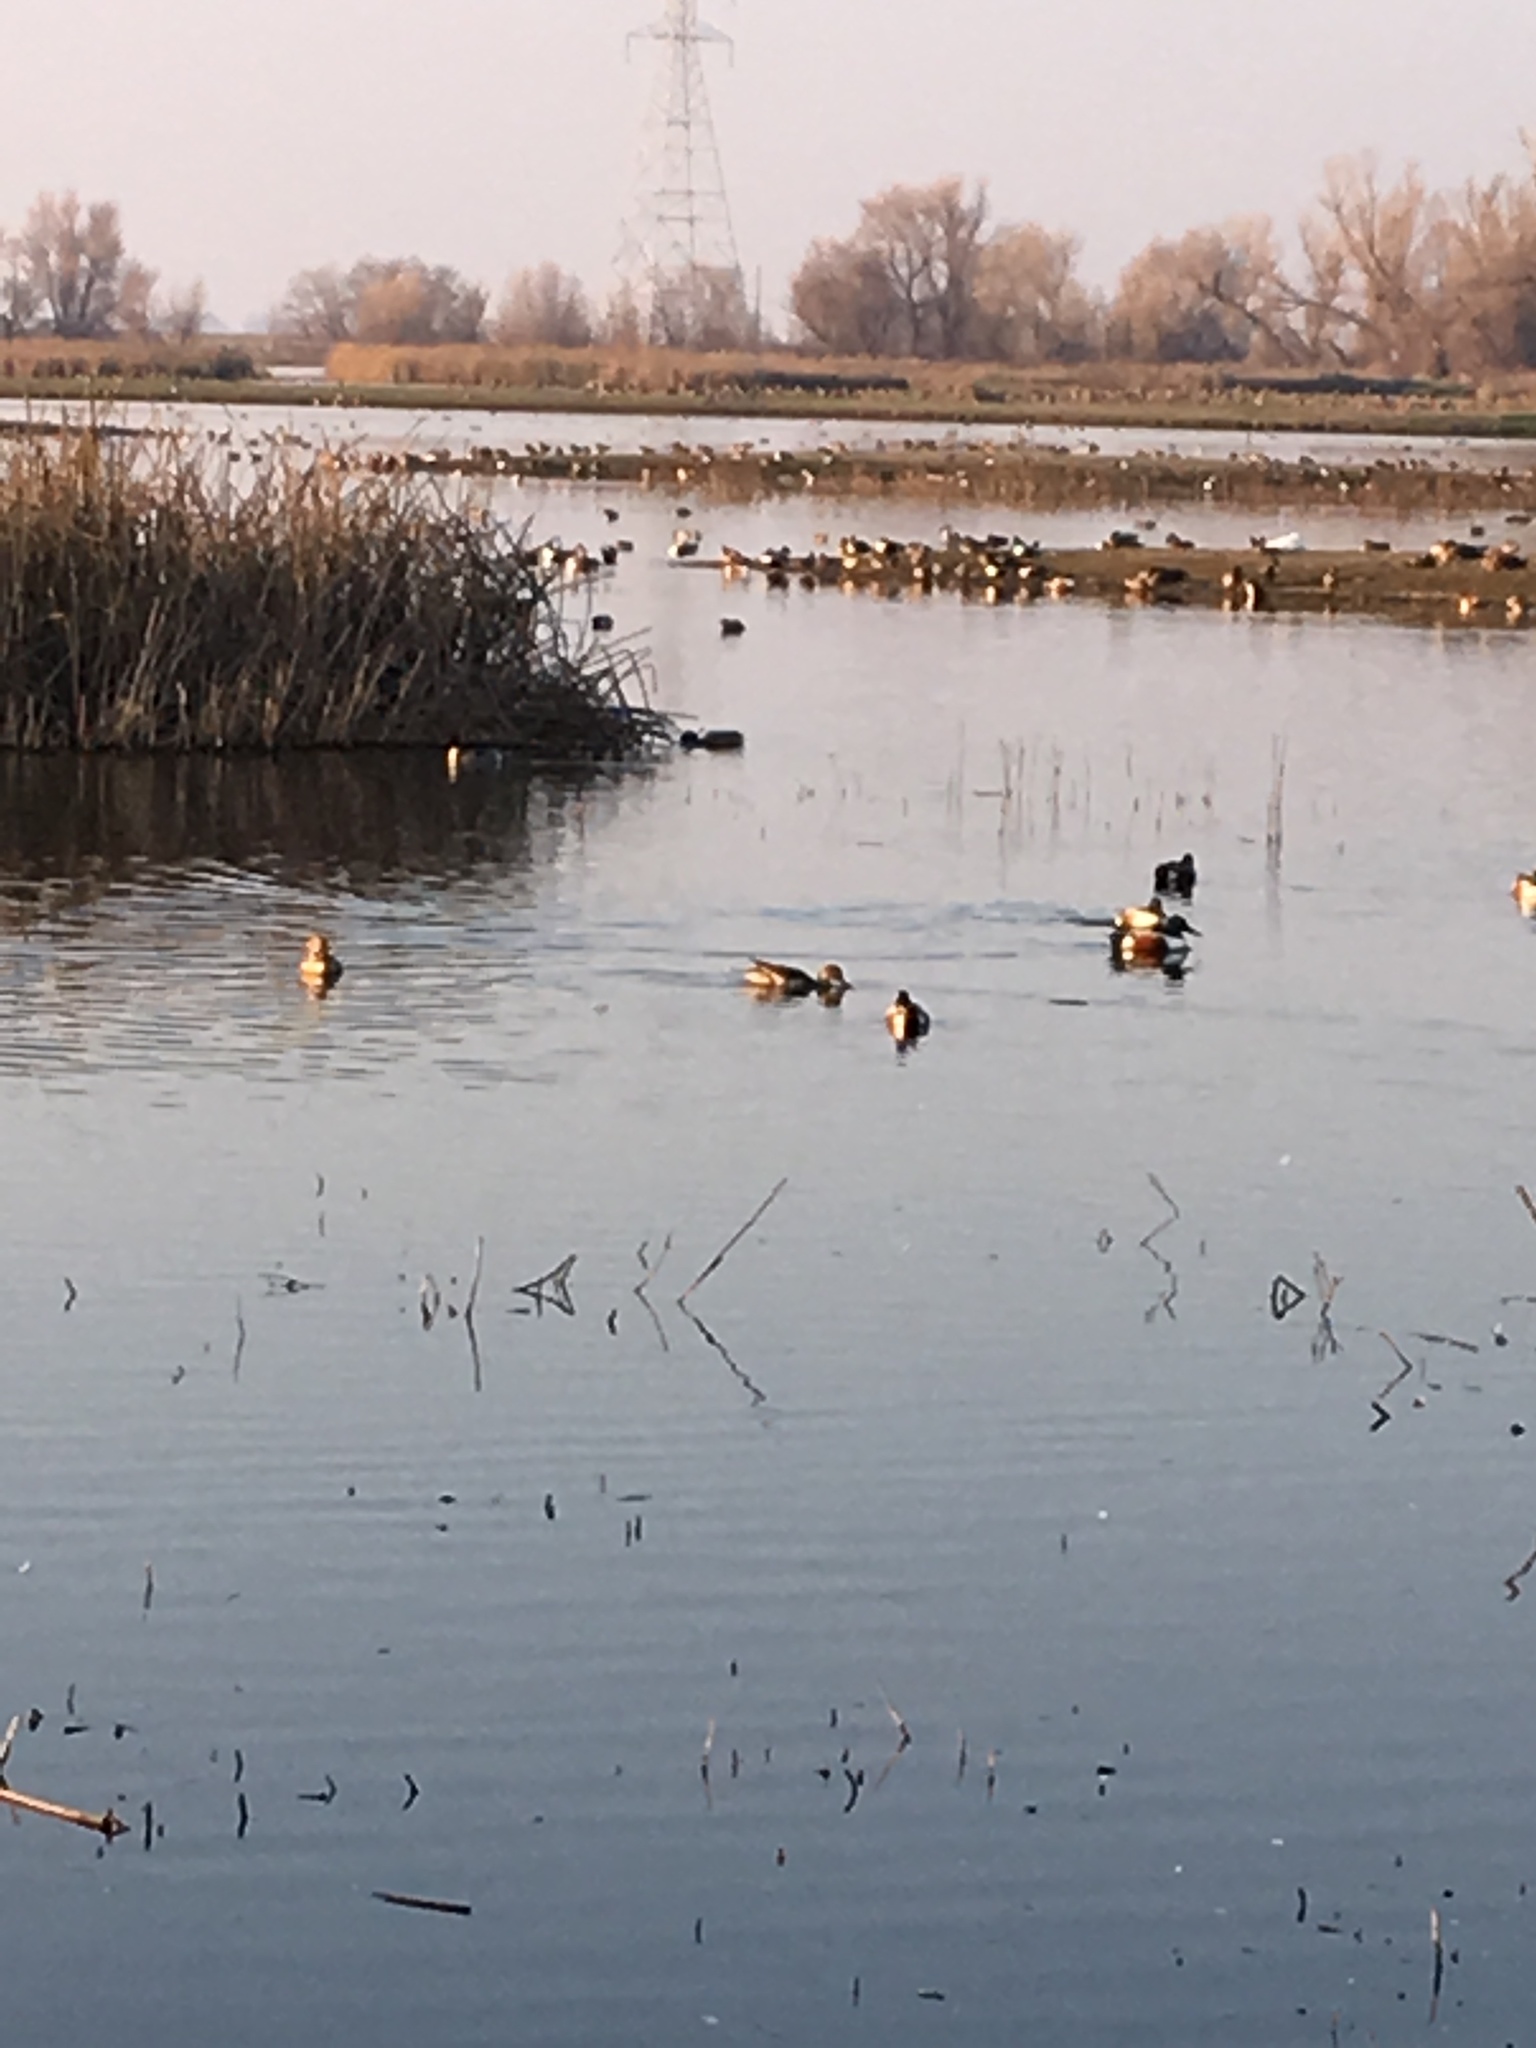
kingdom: Animalia
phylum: Chordata
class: Aves
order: Anseriformes
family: Anatidae
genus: Spatula
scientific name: Spatula clypeata
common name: Northern shoveler
